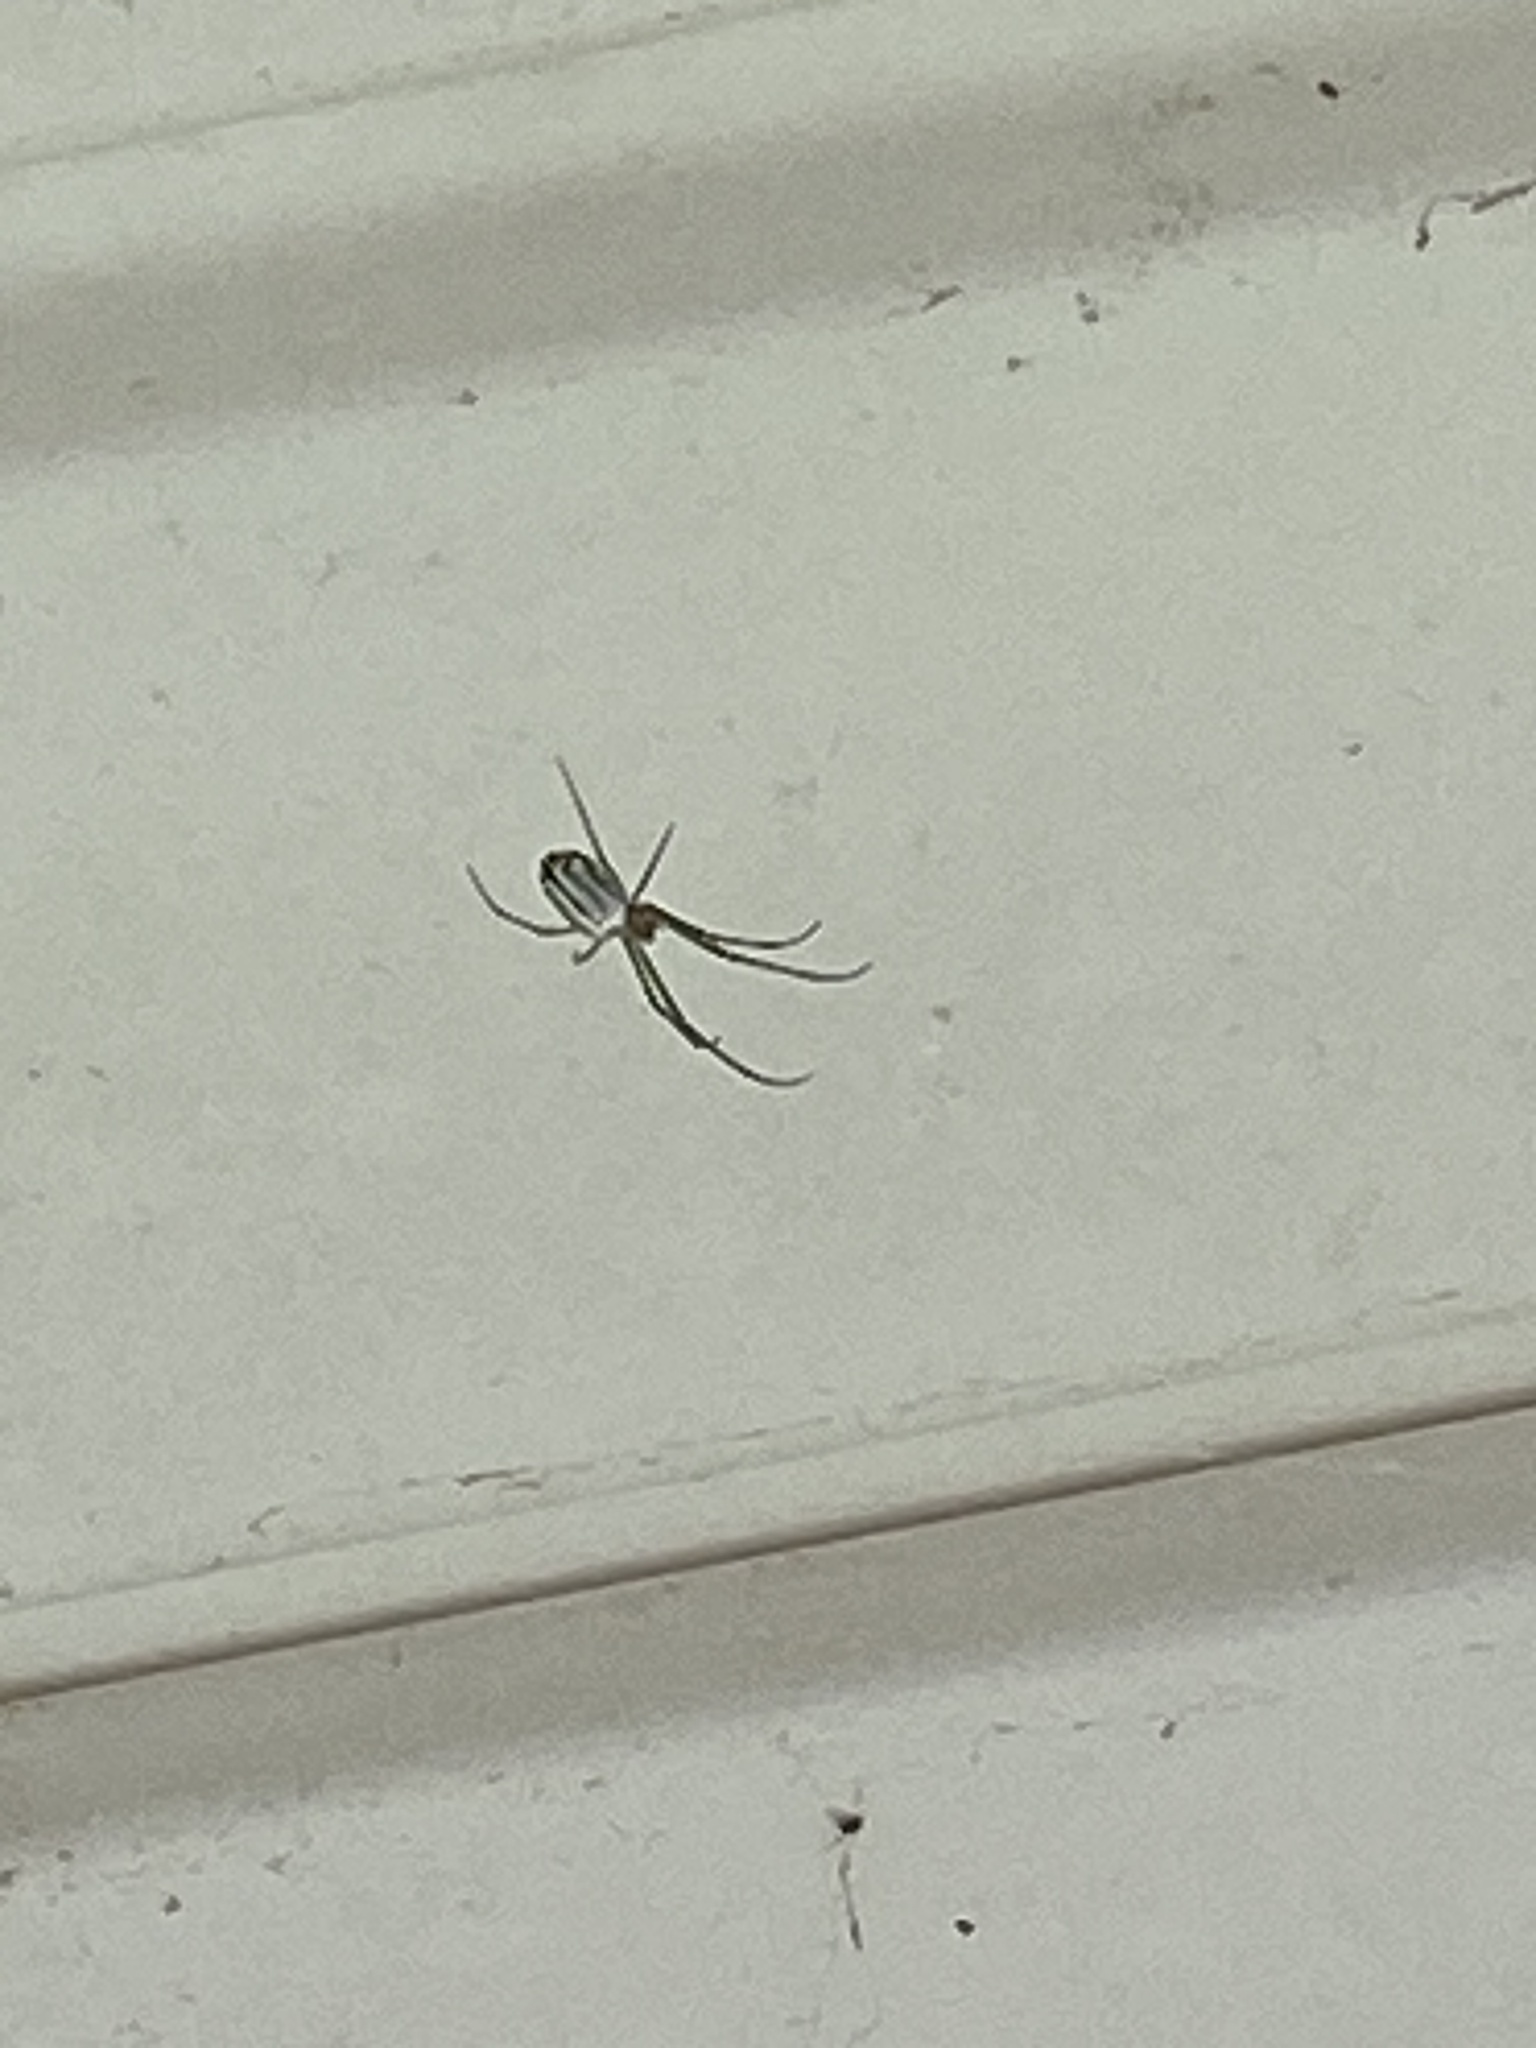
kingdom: Animalia
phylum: Arthropoda
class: Arachnida
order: Araneae
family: Tetragnathidae
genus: Leucauge
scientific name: Leucauge venusta
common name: Longjawed orb weavers
